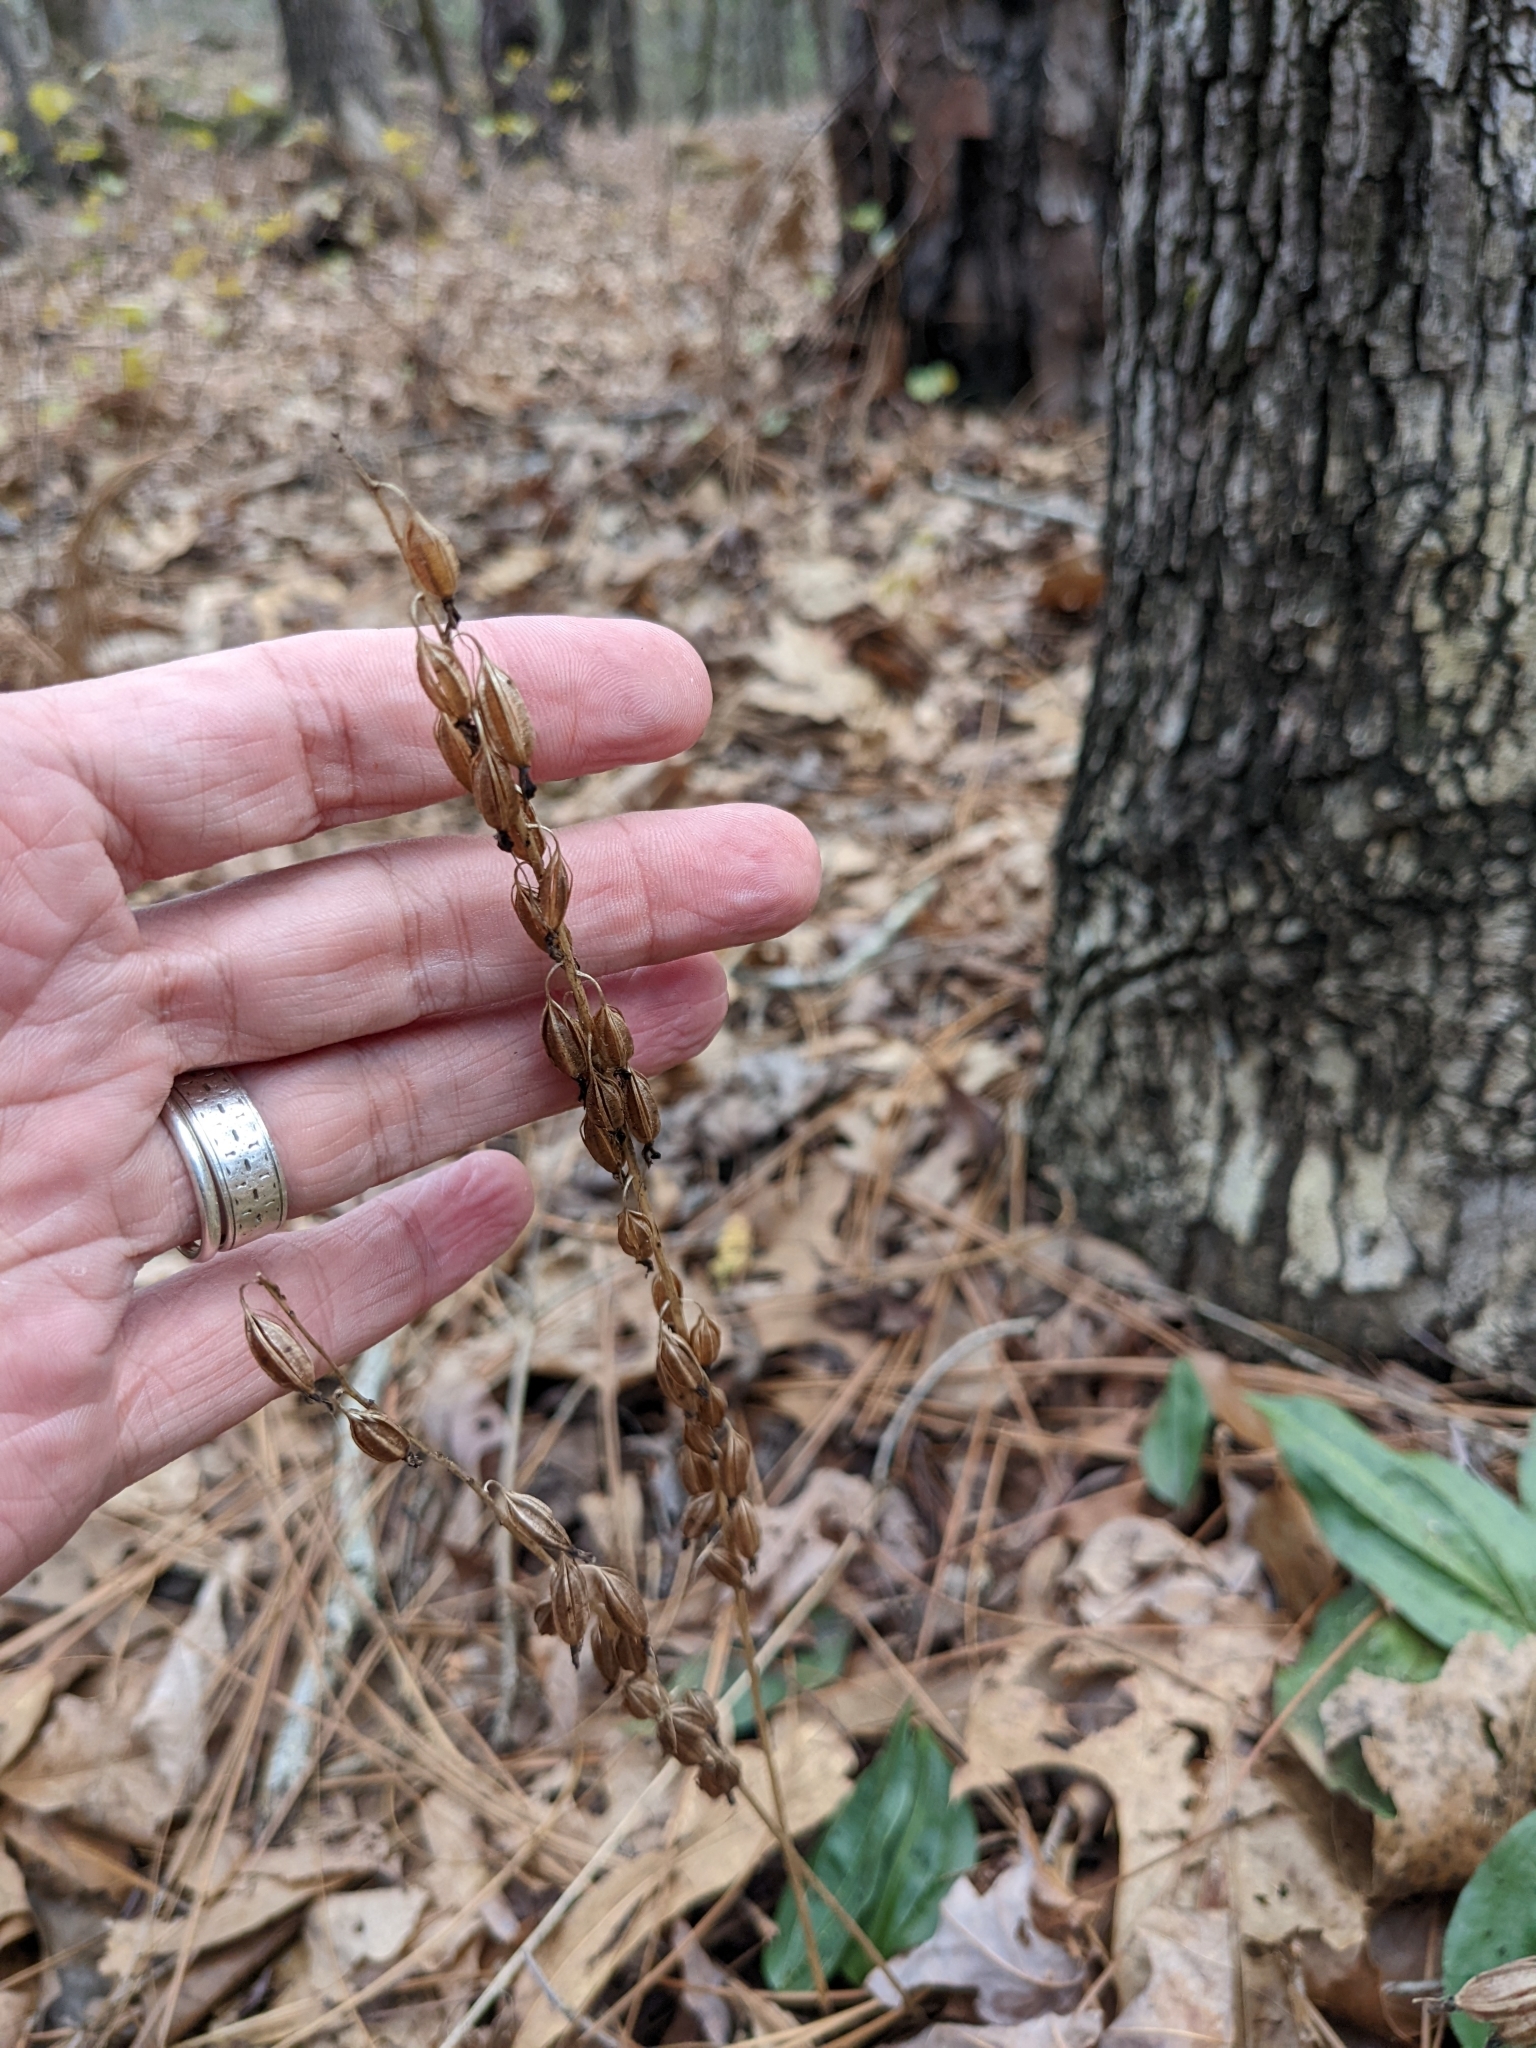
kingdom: Plantae
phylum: Tracheophyta
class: Liliopsida
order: Asparagales
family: Orchidaceae
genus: Tipularia
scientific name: Tipularia discolor
